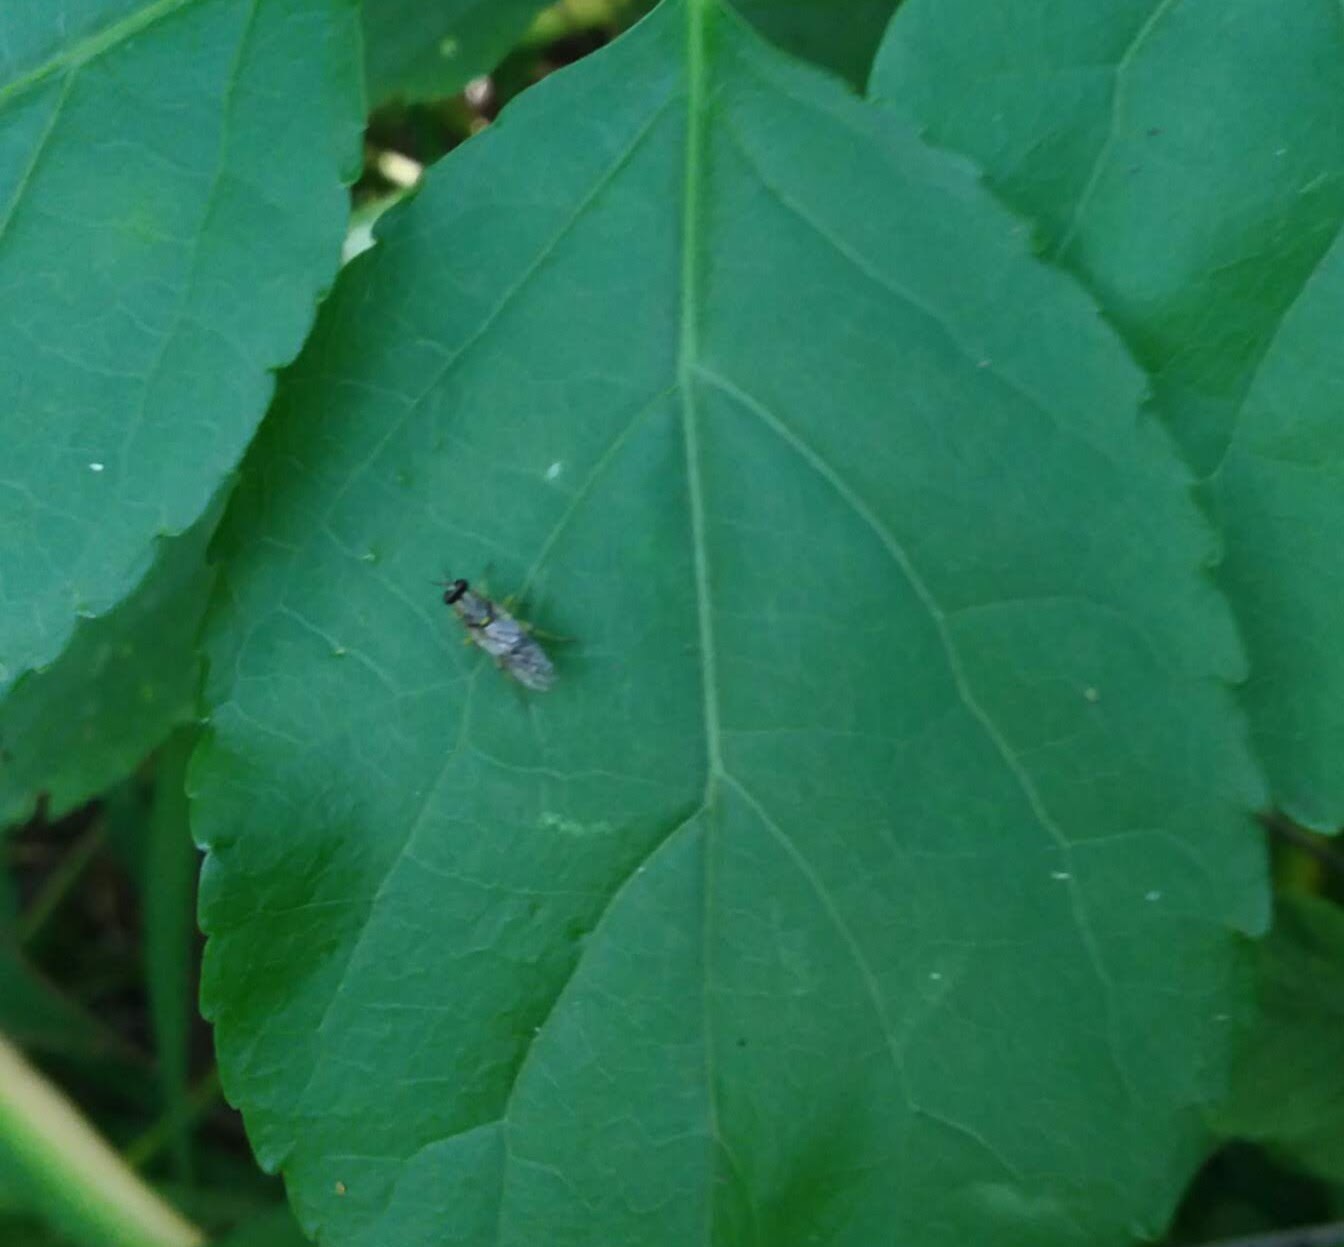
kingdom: Animalia
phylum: Arthropoda
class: Insecta
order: Diptera
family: Xylomyidae
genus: Solva
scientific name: Solva pallipes
